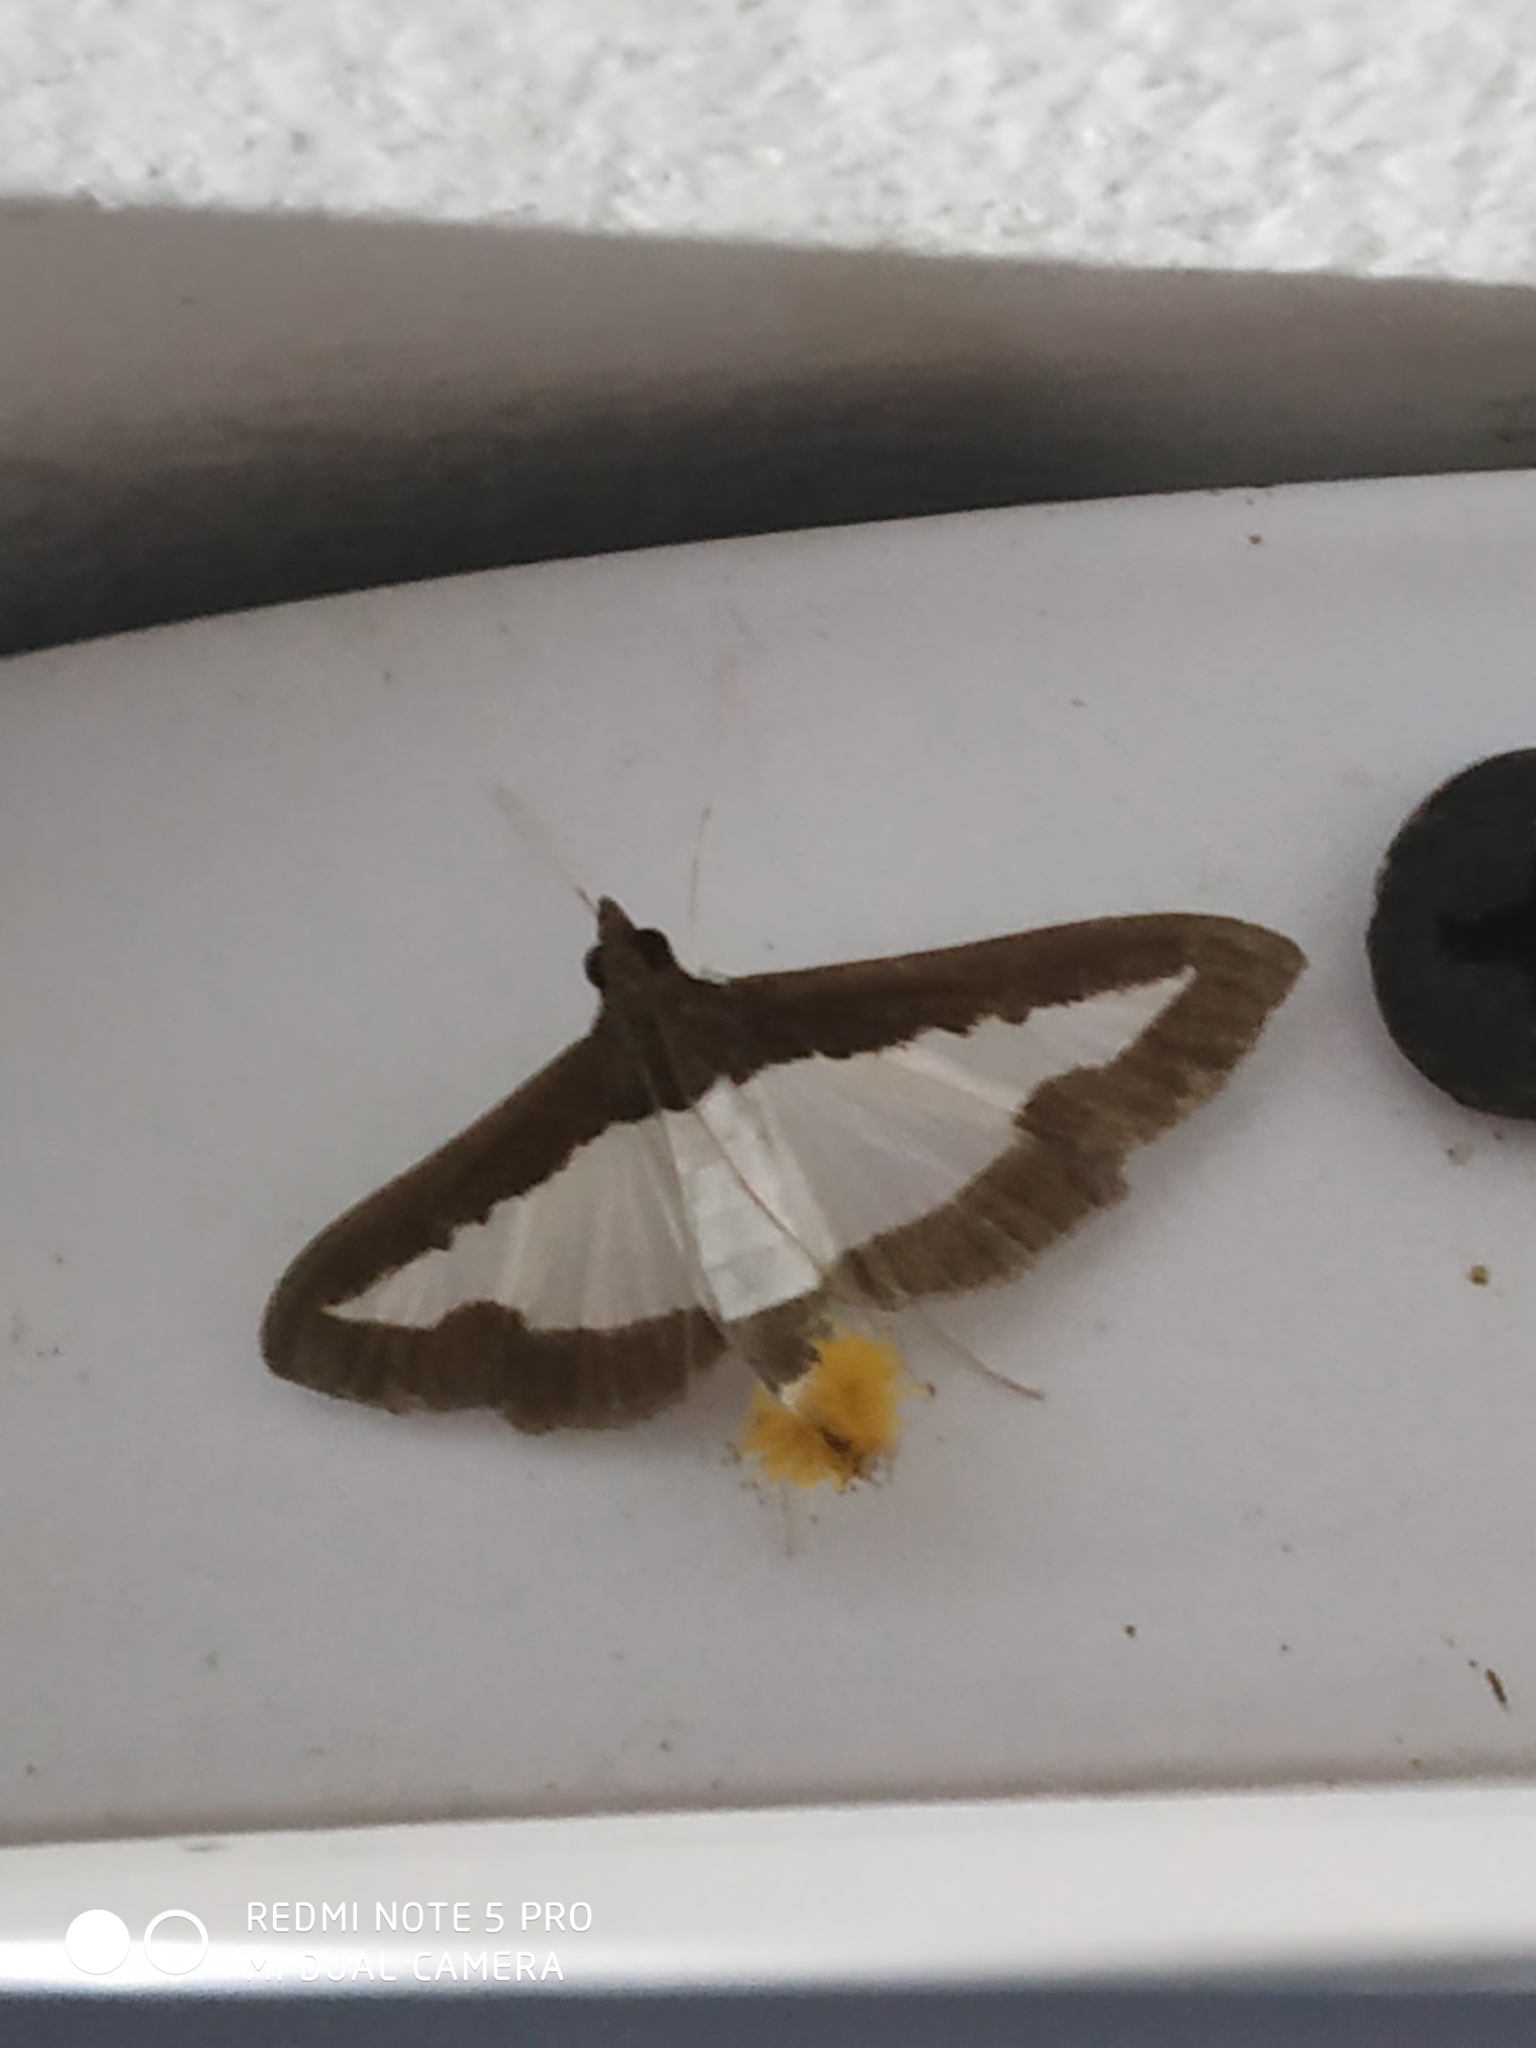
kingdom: Animalia
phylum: Arthropoda
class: Insecta
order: Lepidoptera
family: Crambidae
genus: Diaphania
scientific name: Diaphania indica
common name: Cucumber moth
